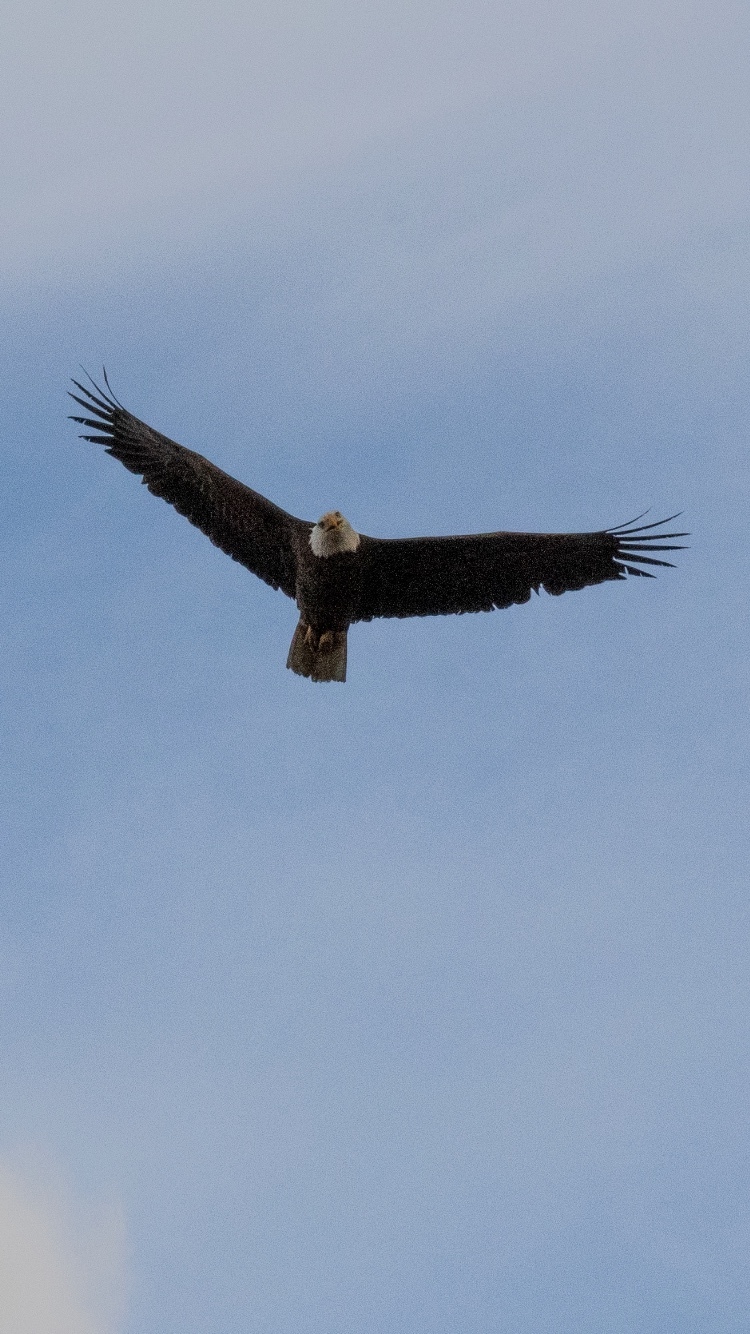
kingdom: Animalia
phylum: Chordata
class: Aves
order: Accipitriformes
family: Accipitridae
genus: Haliaeetus
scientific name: Haliaeetus leucocephalus
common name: Bald eagle
